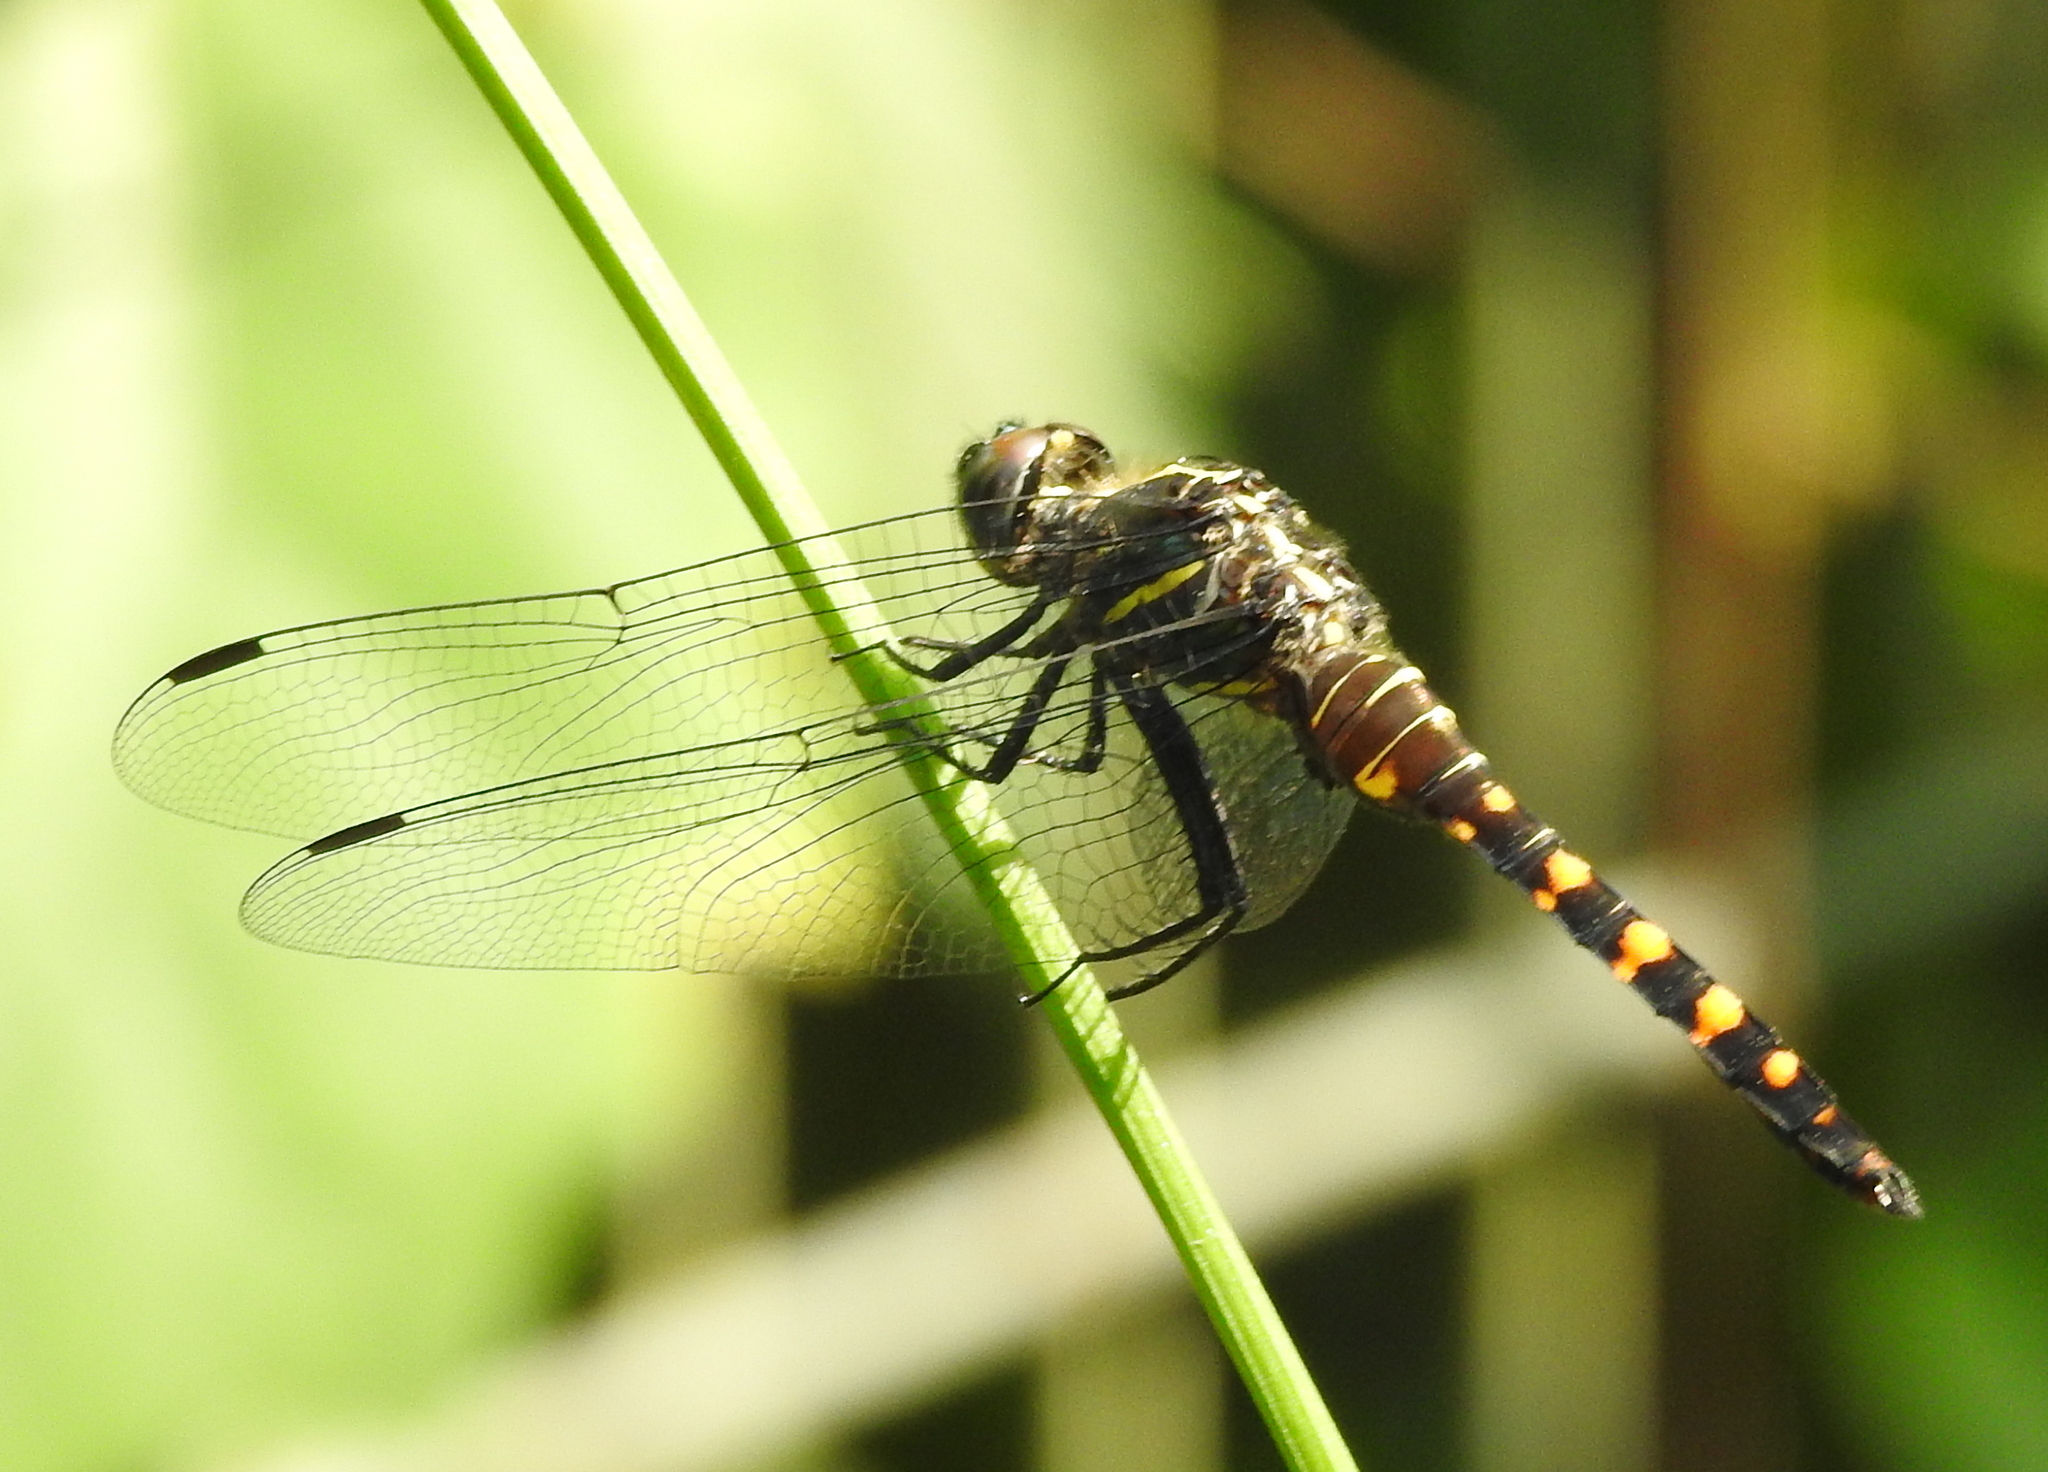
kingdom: Animalia
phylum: Arthropoda
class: Insecta
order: Odonata
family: Libellulidae
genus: Onychothemis
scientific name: Onychothemis testacea
